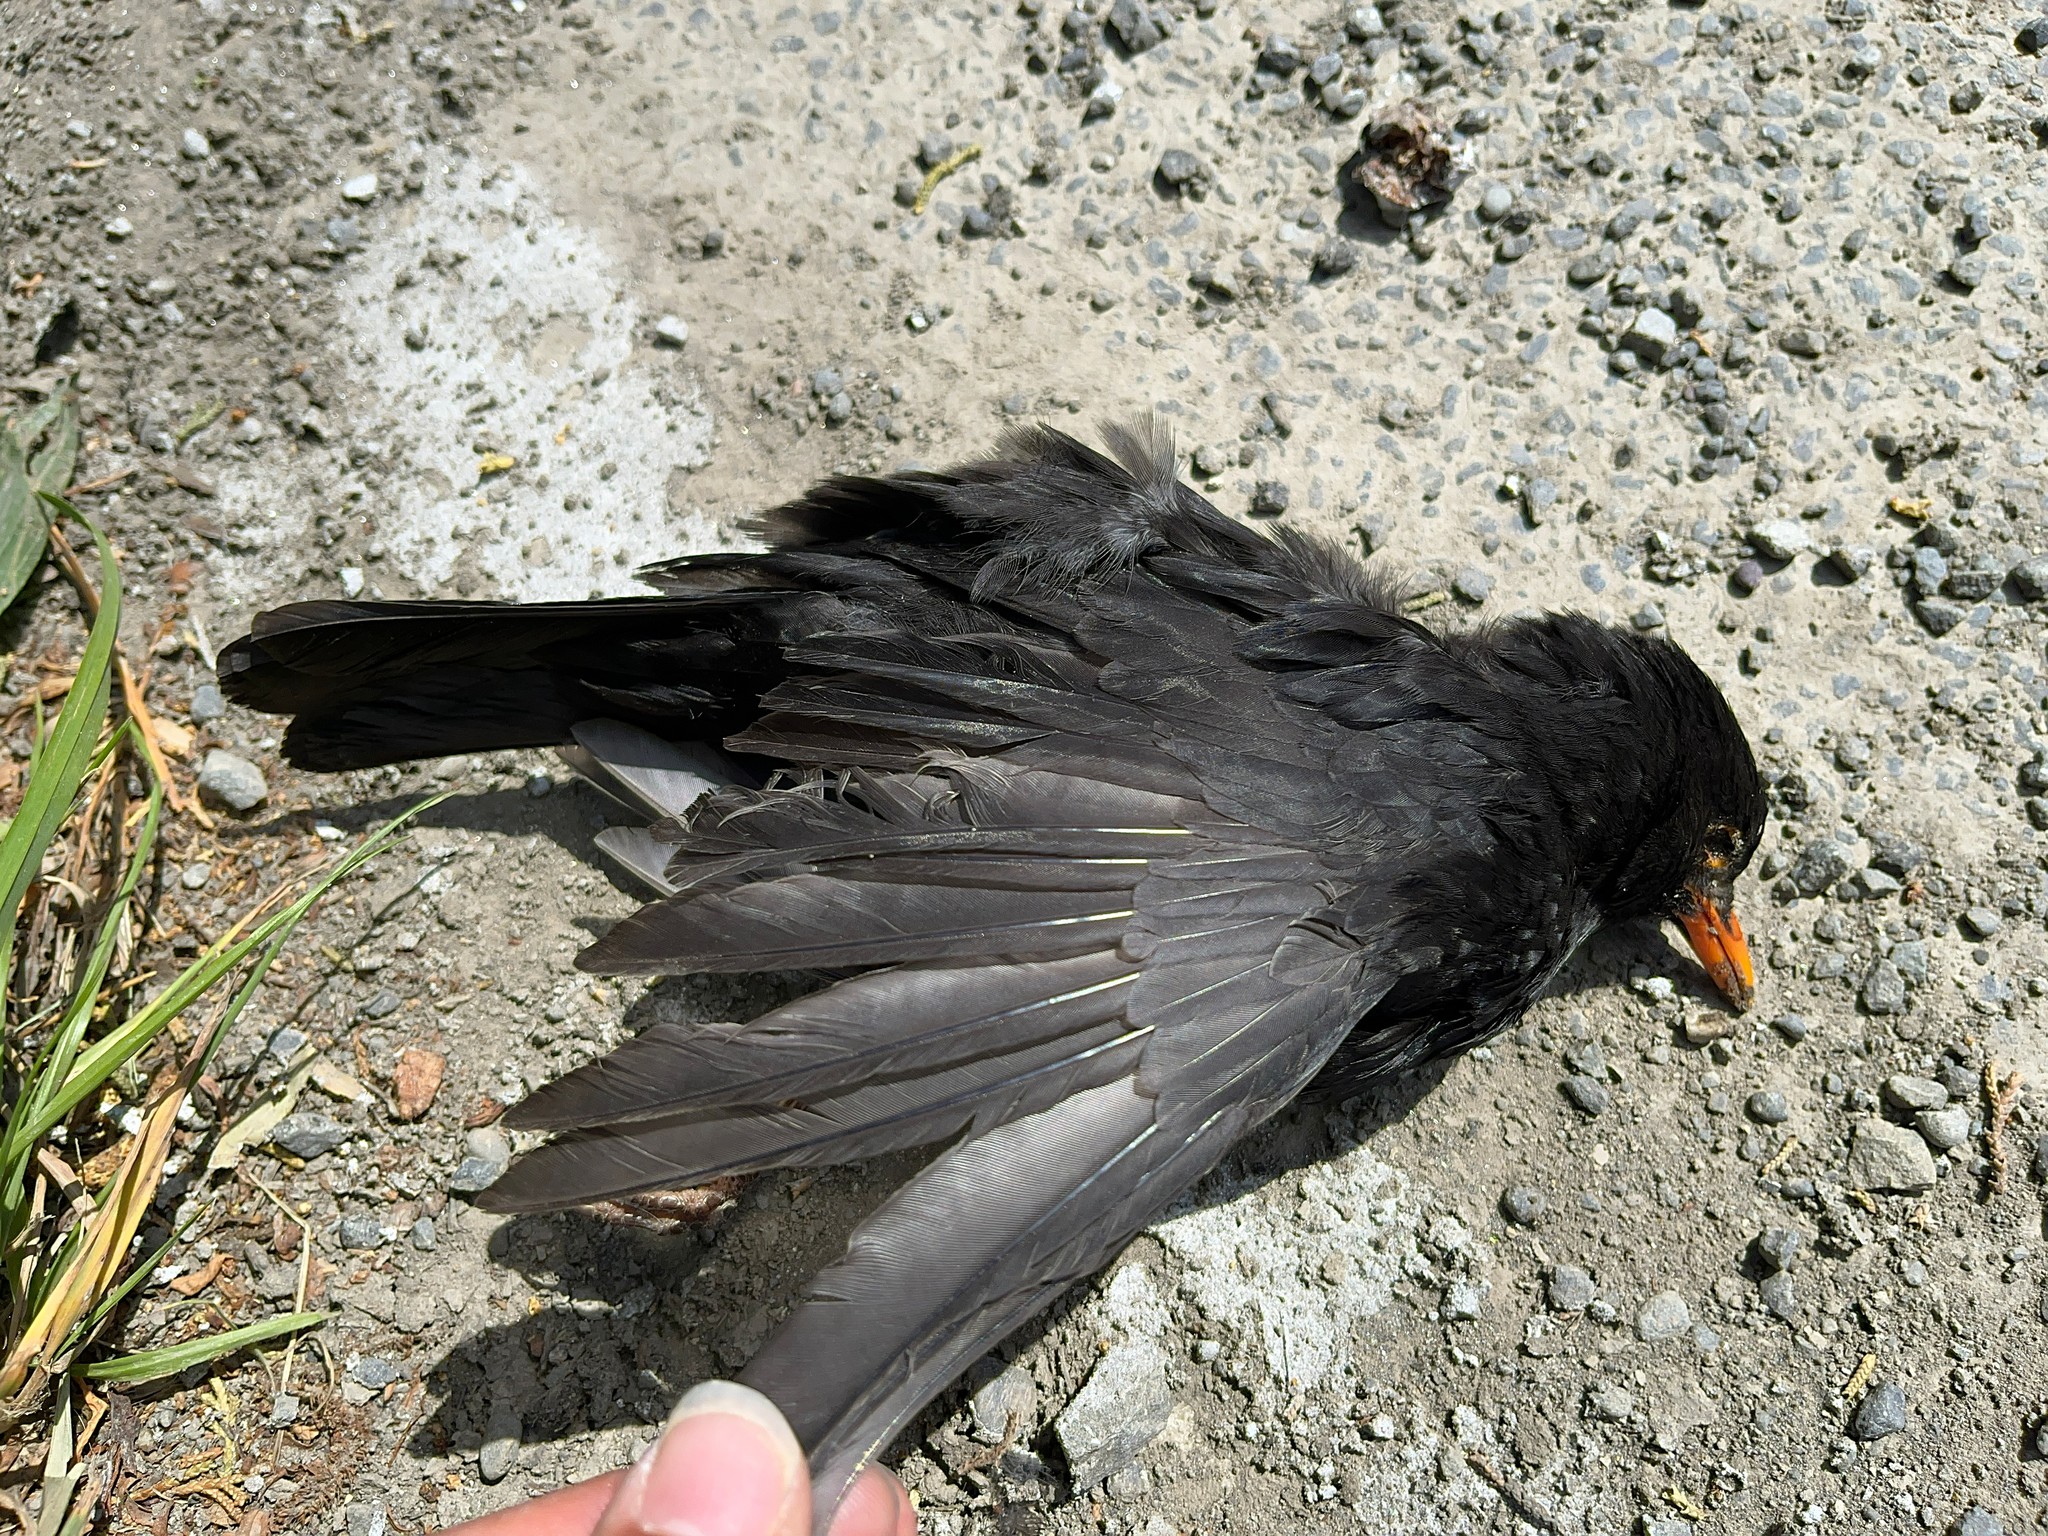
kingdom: Animalia
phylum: Chordata
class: Aves
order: Passeriformes
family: Turdidae
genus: Turdus
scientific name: Turdus merula
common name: Common blackbird
